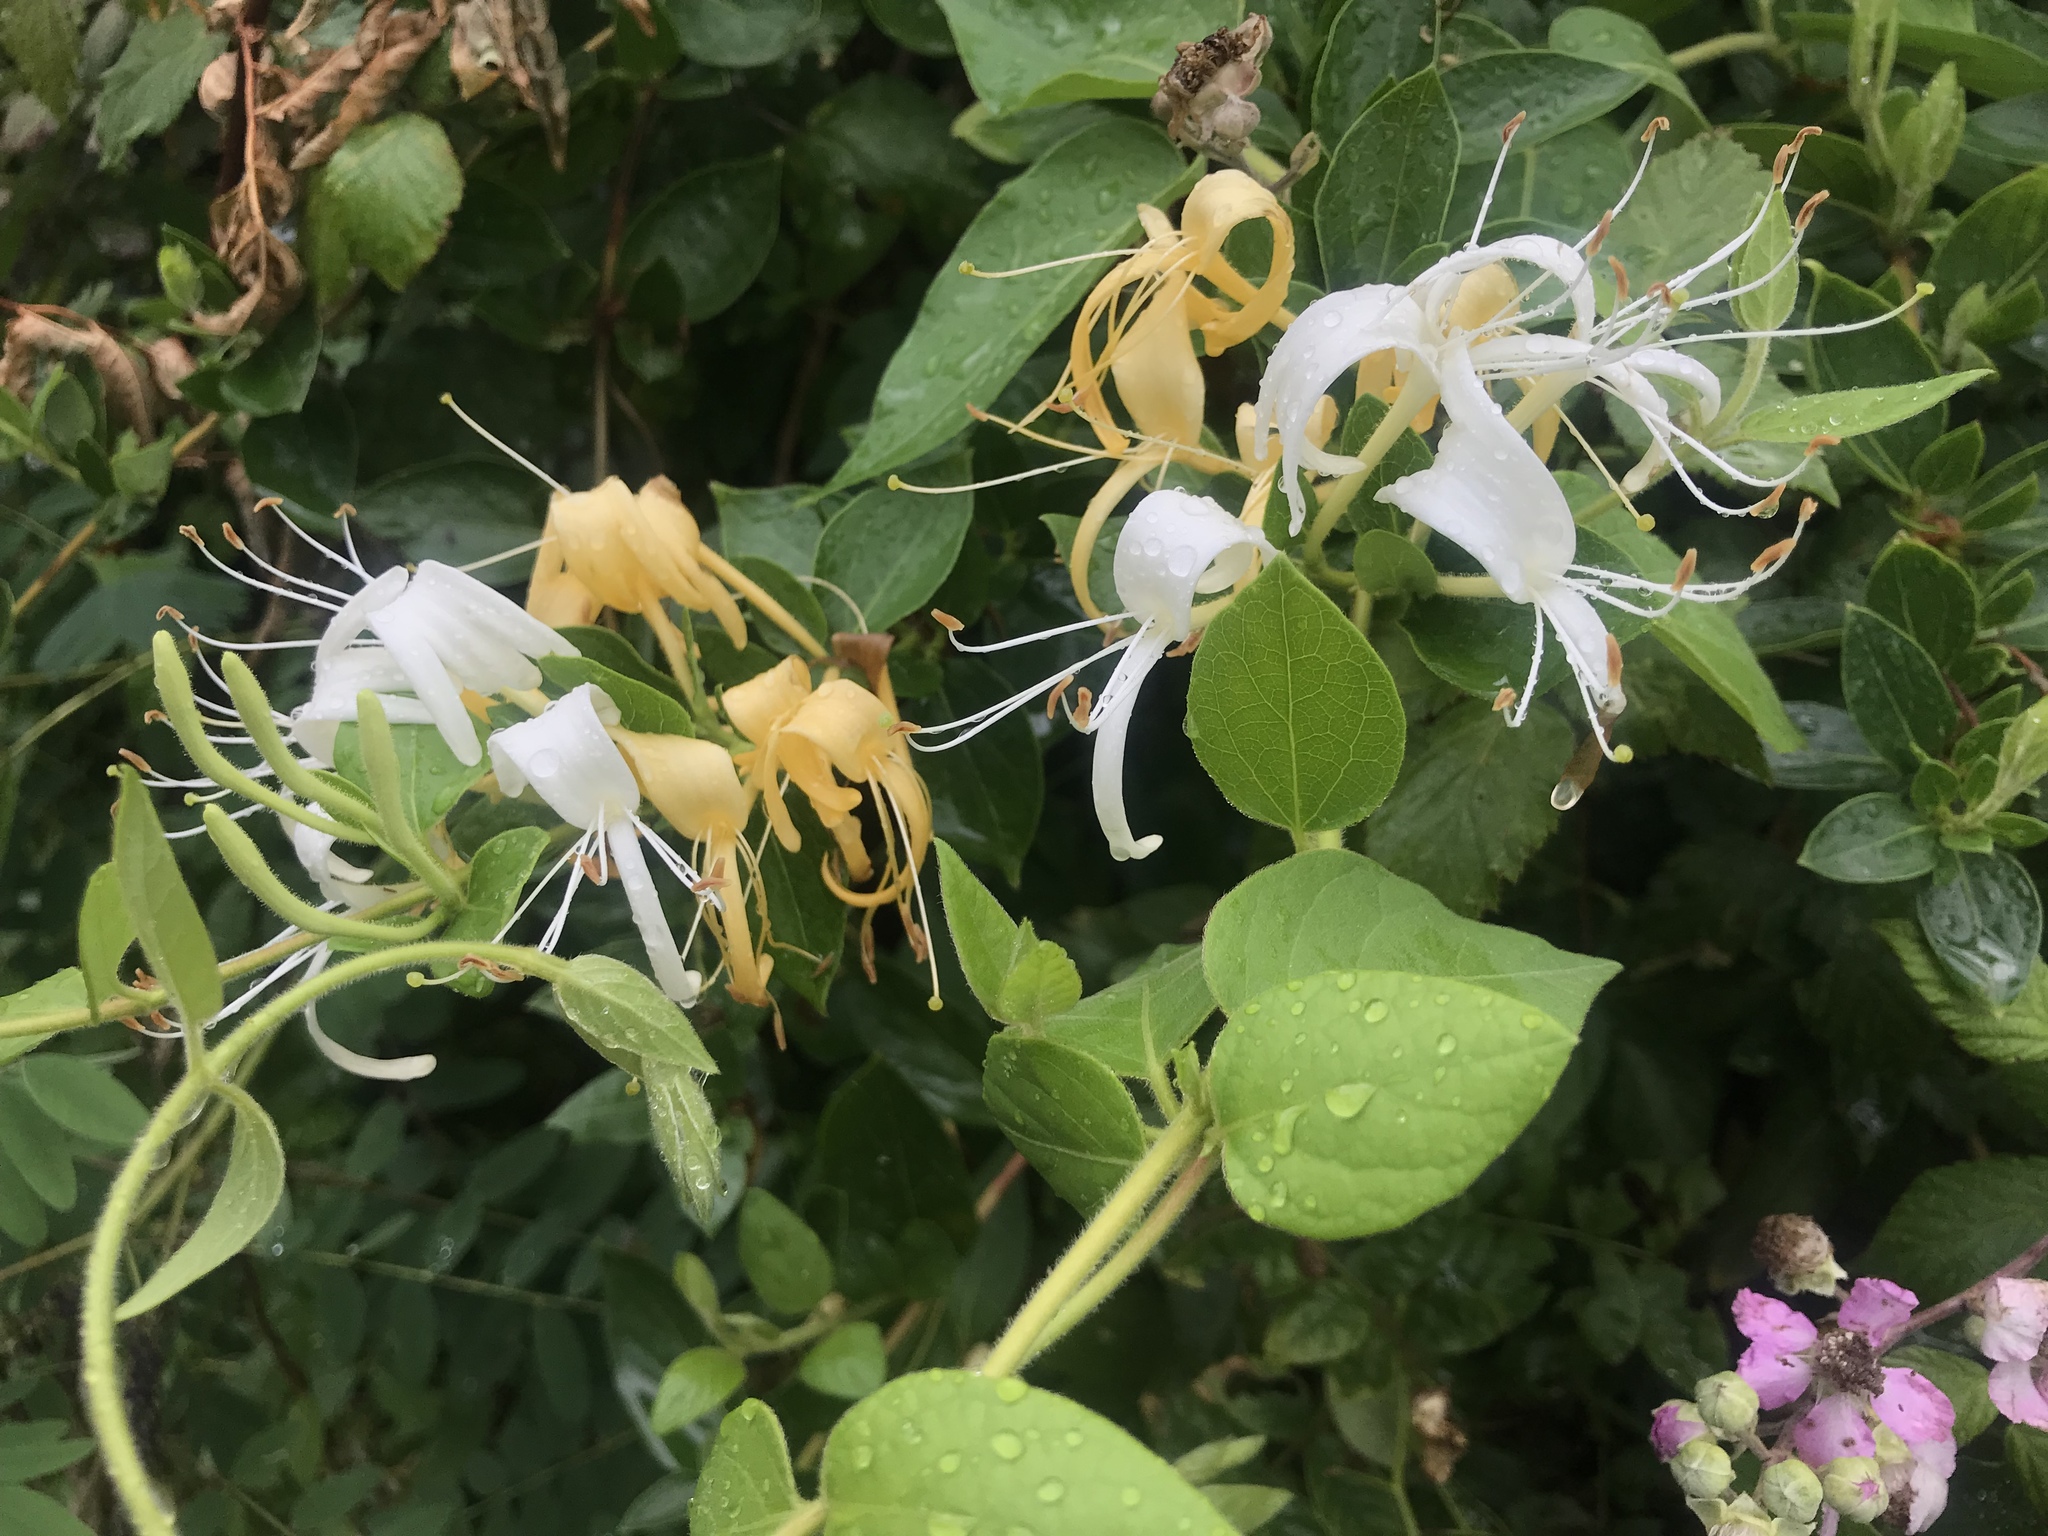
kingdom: Plantae
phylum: Tracheophyta
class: Magnoliopsida
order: Dipsacales
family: Caprifoliaceae
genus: Lonicera
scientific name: Lonicera japonica
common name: Japanese honeysuckle
